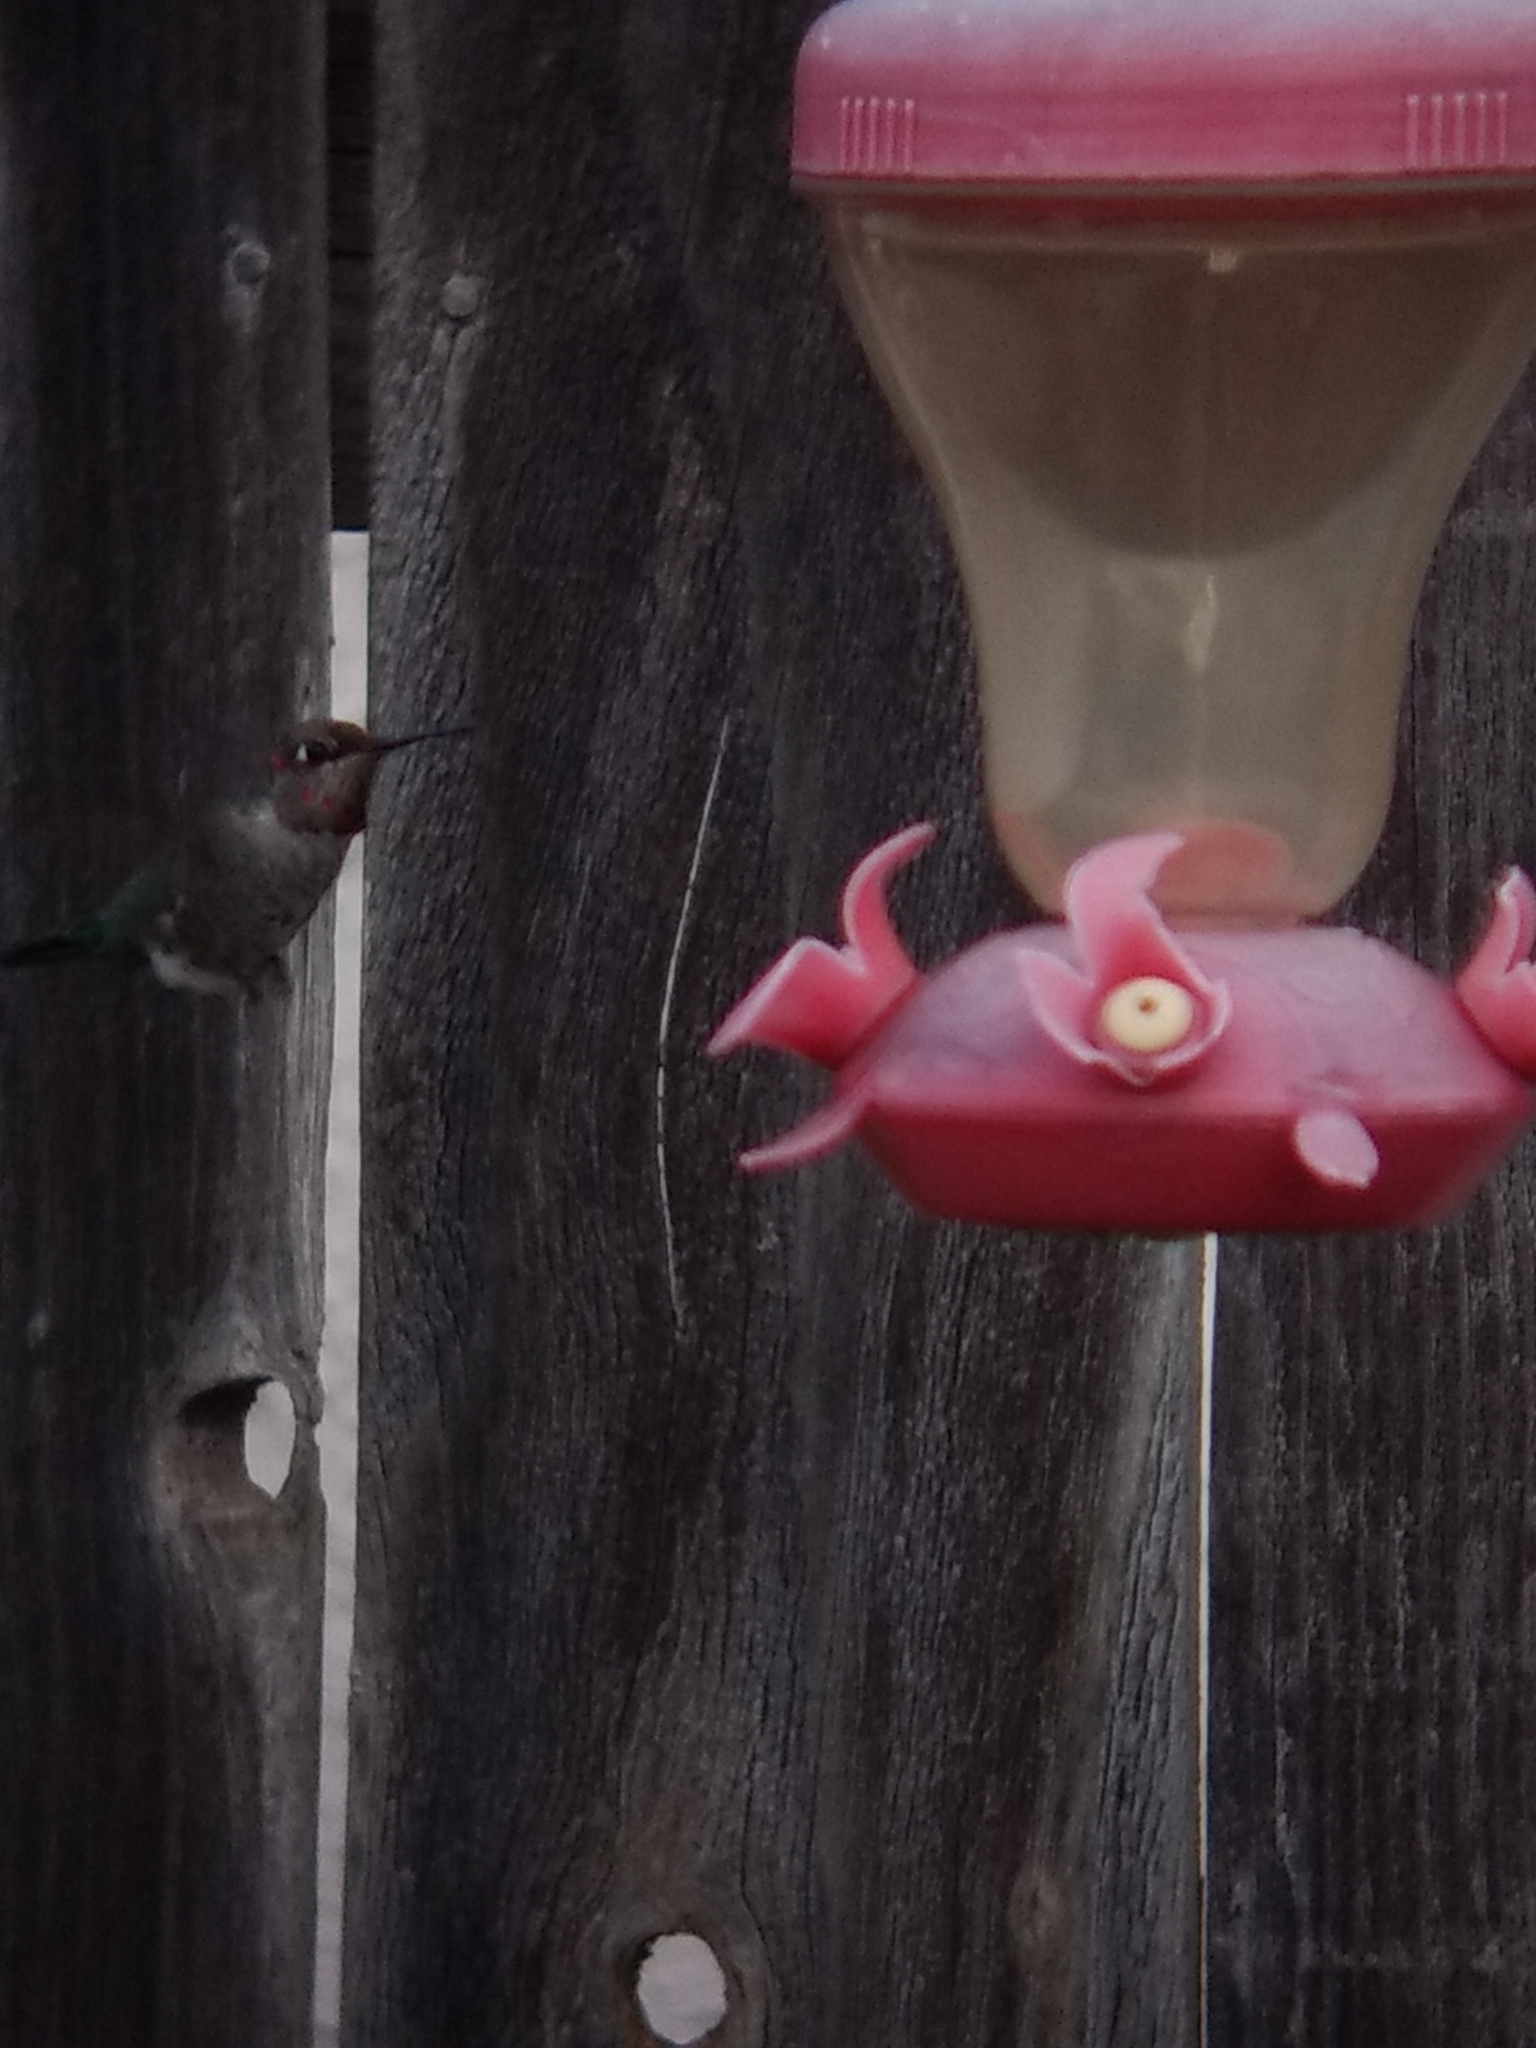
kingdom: Animalia
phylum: Chordata
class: Aves
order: Apodiformes
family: Trochilidae
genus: Calypte
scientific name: Calypte anna
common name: Anna's hummingbird
